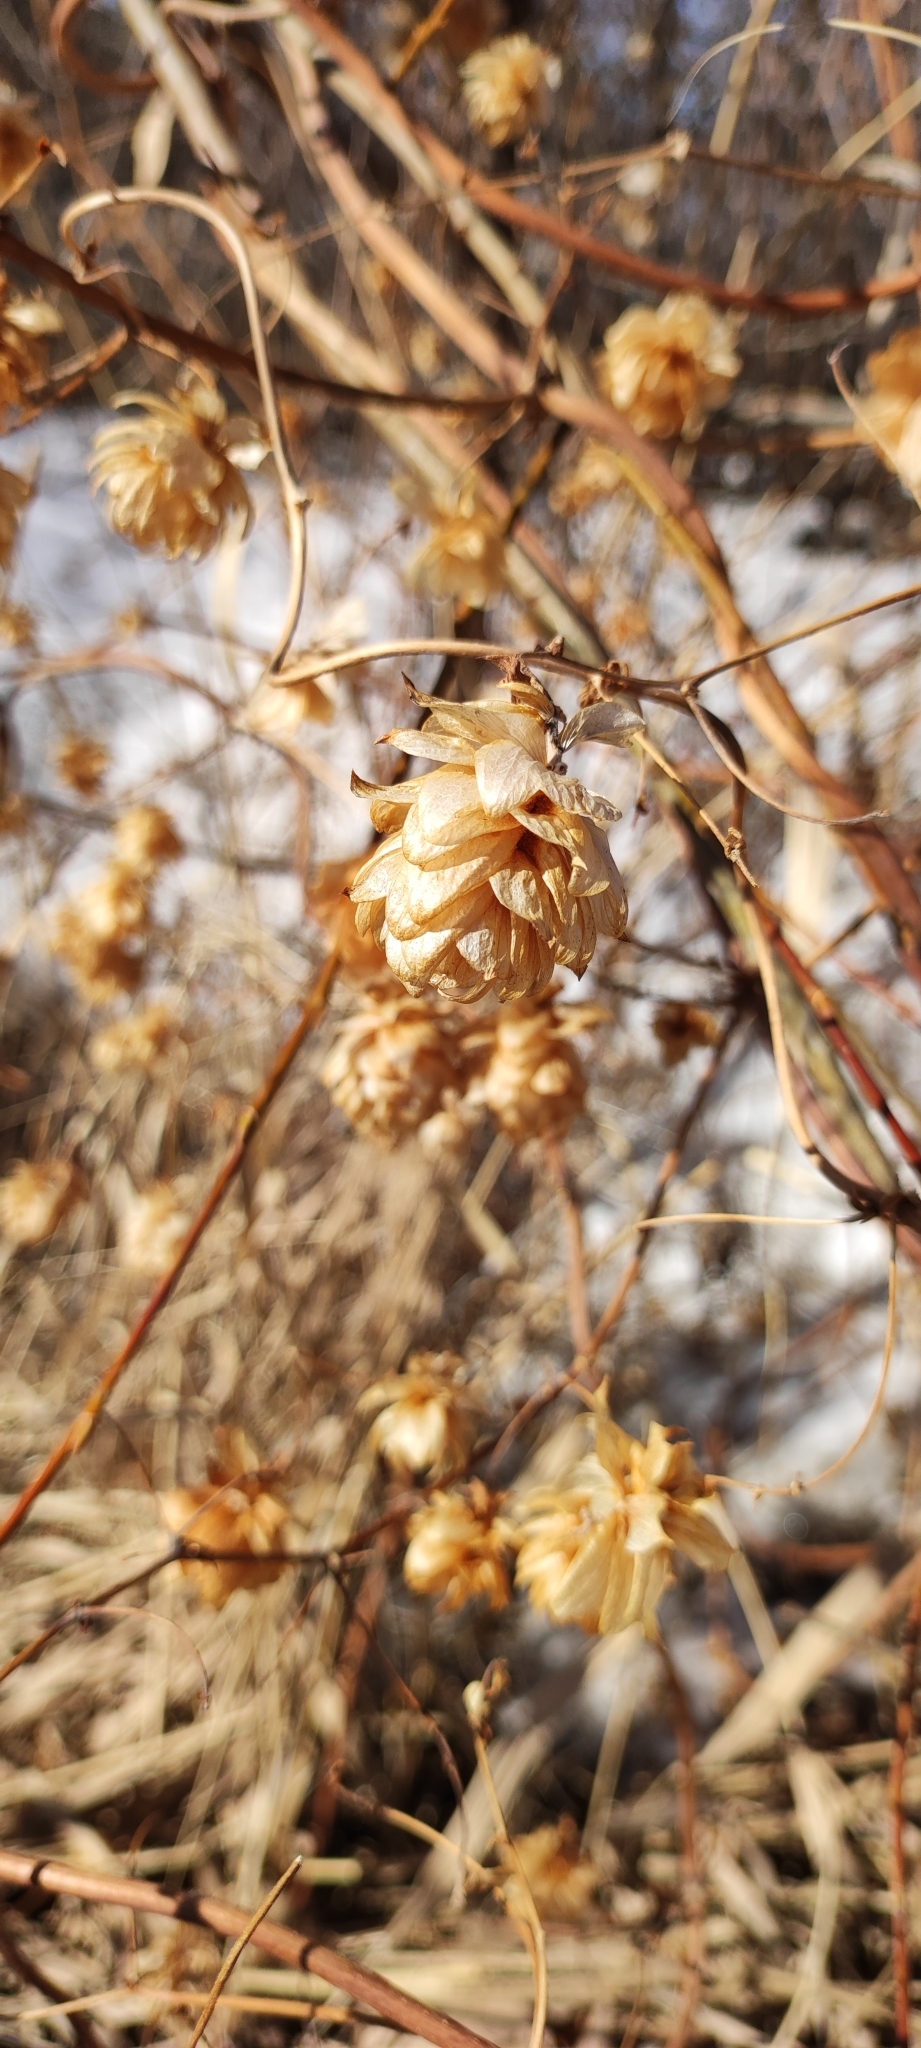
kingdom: Plantae
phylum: Tracheophyta
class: Magnoliopsida
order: Rosales
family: Cannabaceae
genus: Humulus
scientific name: Humulus lupulus
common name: Hop
